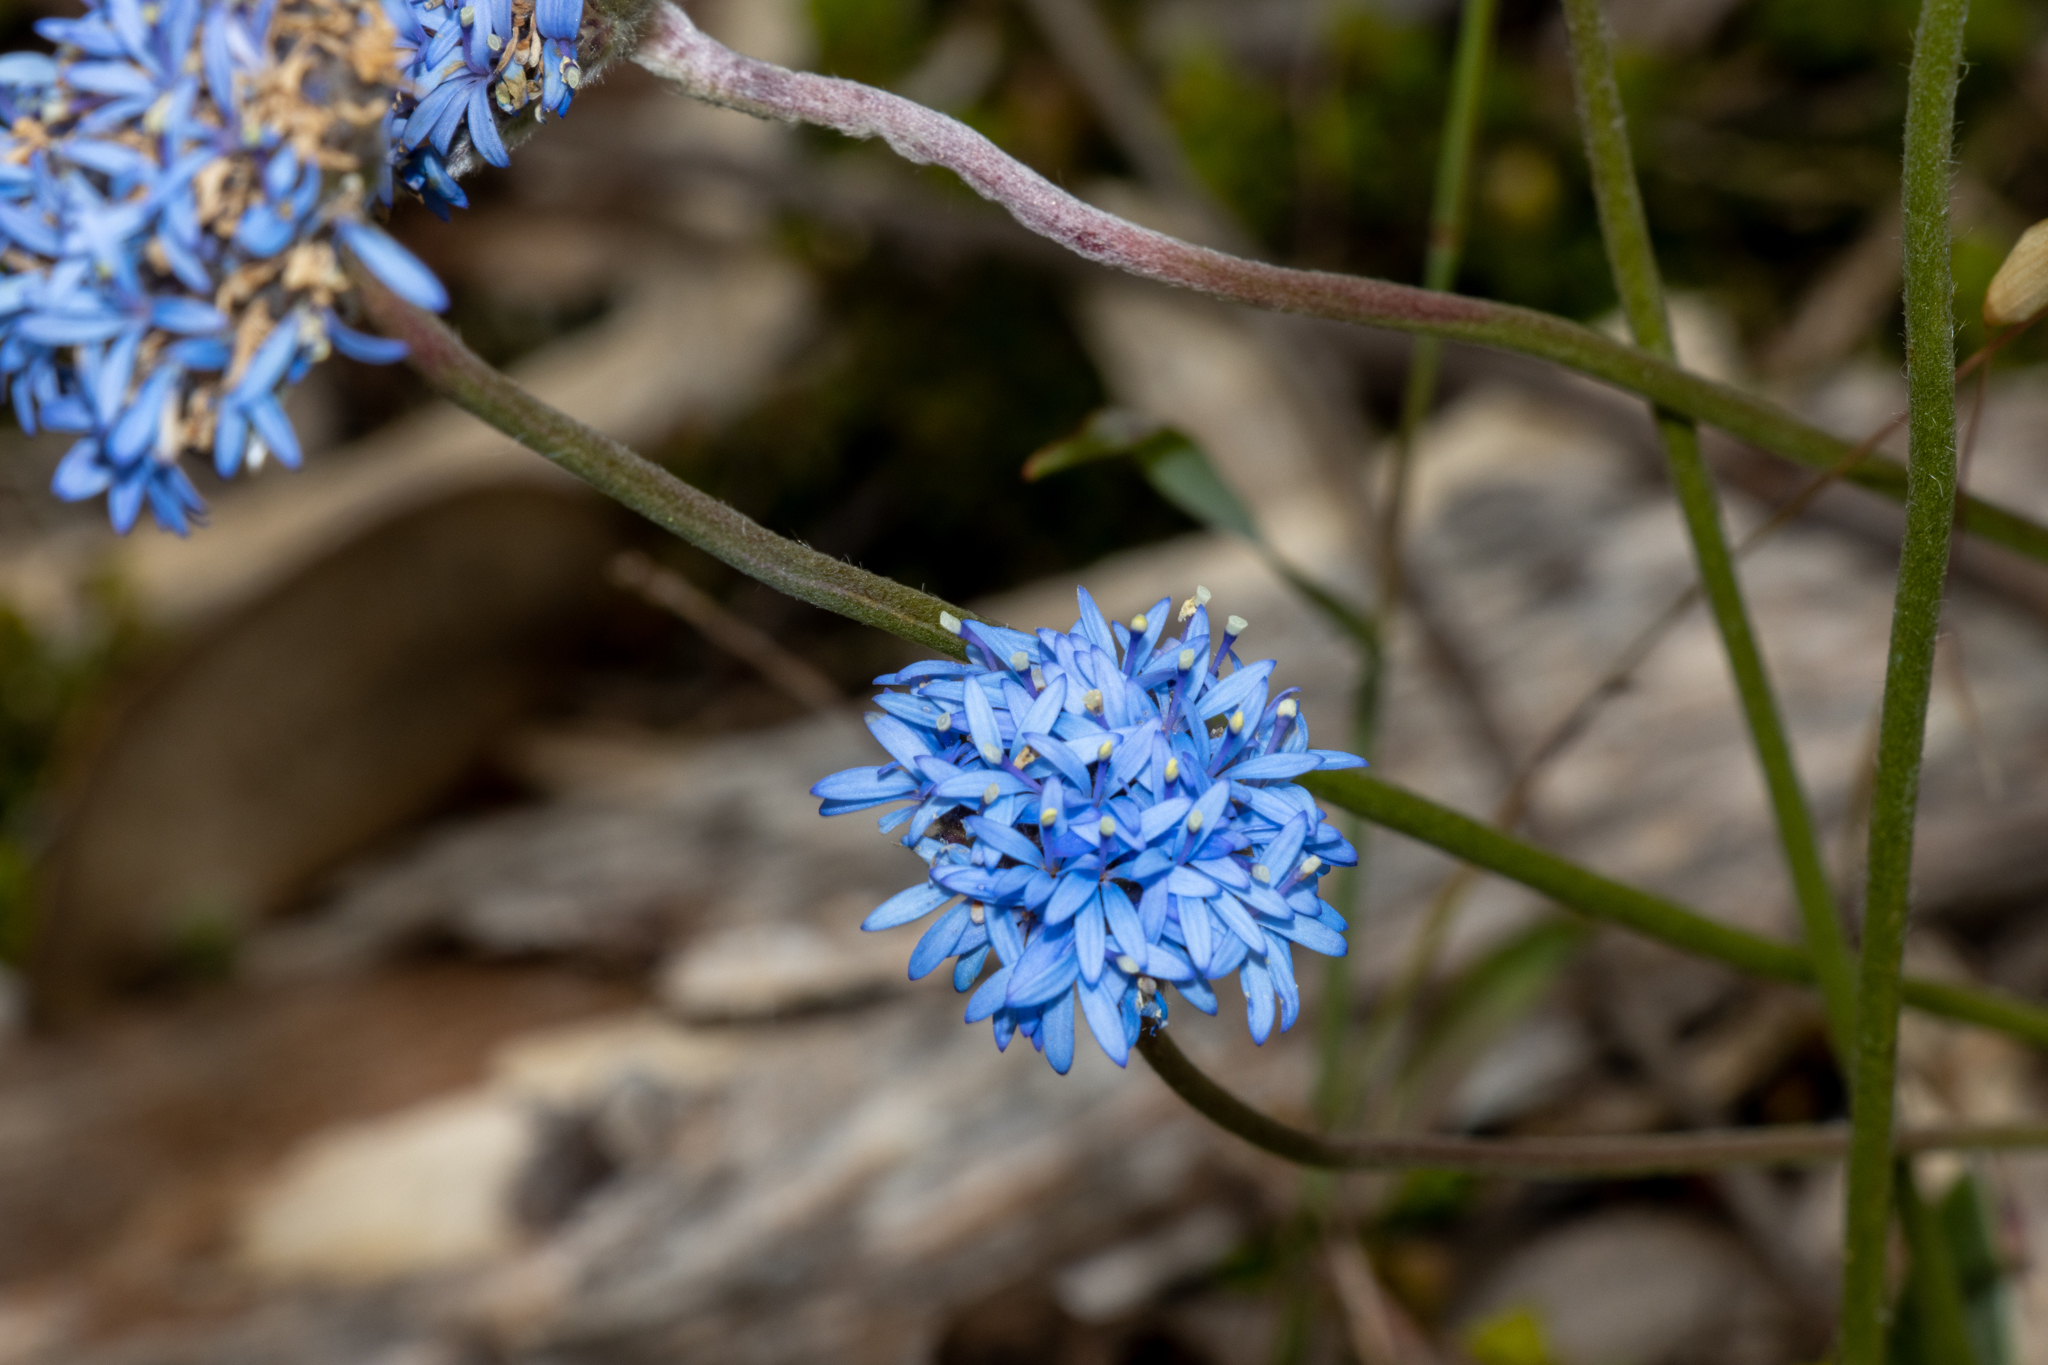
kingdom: Plantae
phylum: Tracheophyta
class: Magnoliopsida
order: Asterales
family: Goodeniaceae
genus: Brunonia
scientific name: Brunonia australis
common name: Blue pincushion
